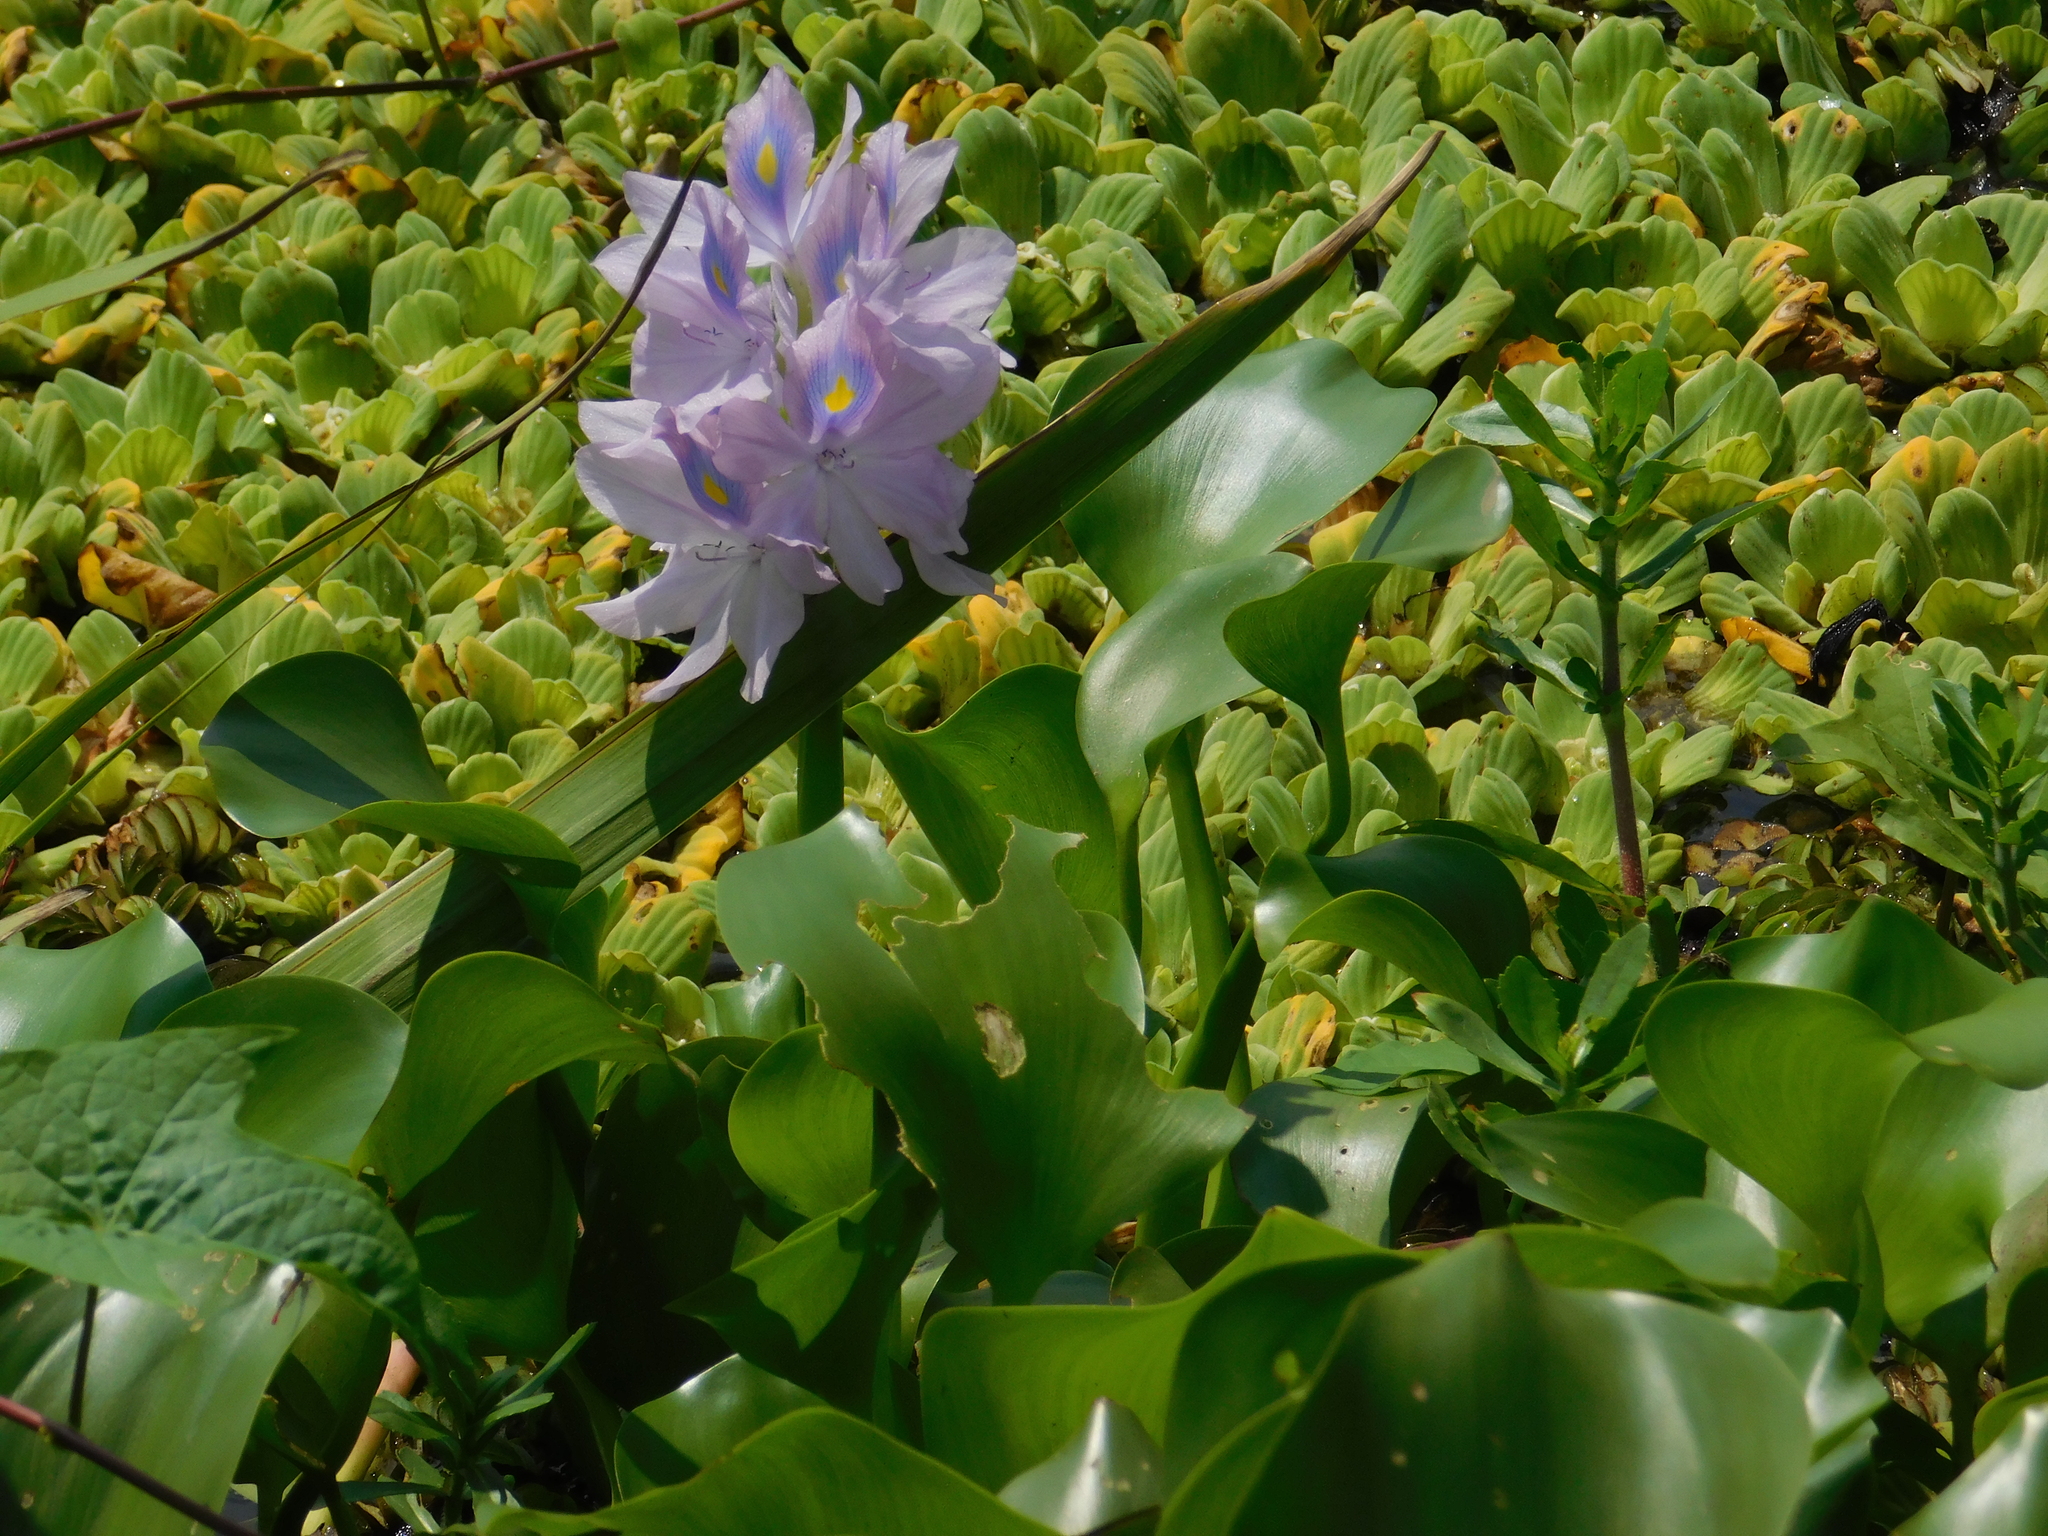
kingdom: Plantae
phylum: Tracheophyta
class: Liliopsida
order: Commelinales
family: Pontederiaceae
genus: Pontederia
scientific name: Pontederia crassipes
